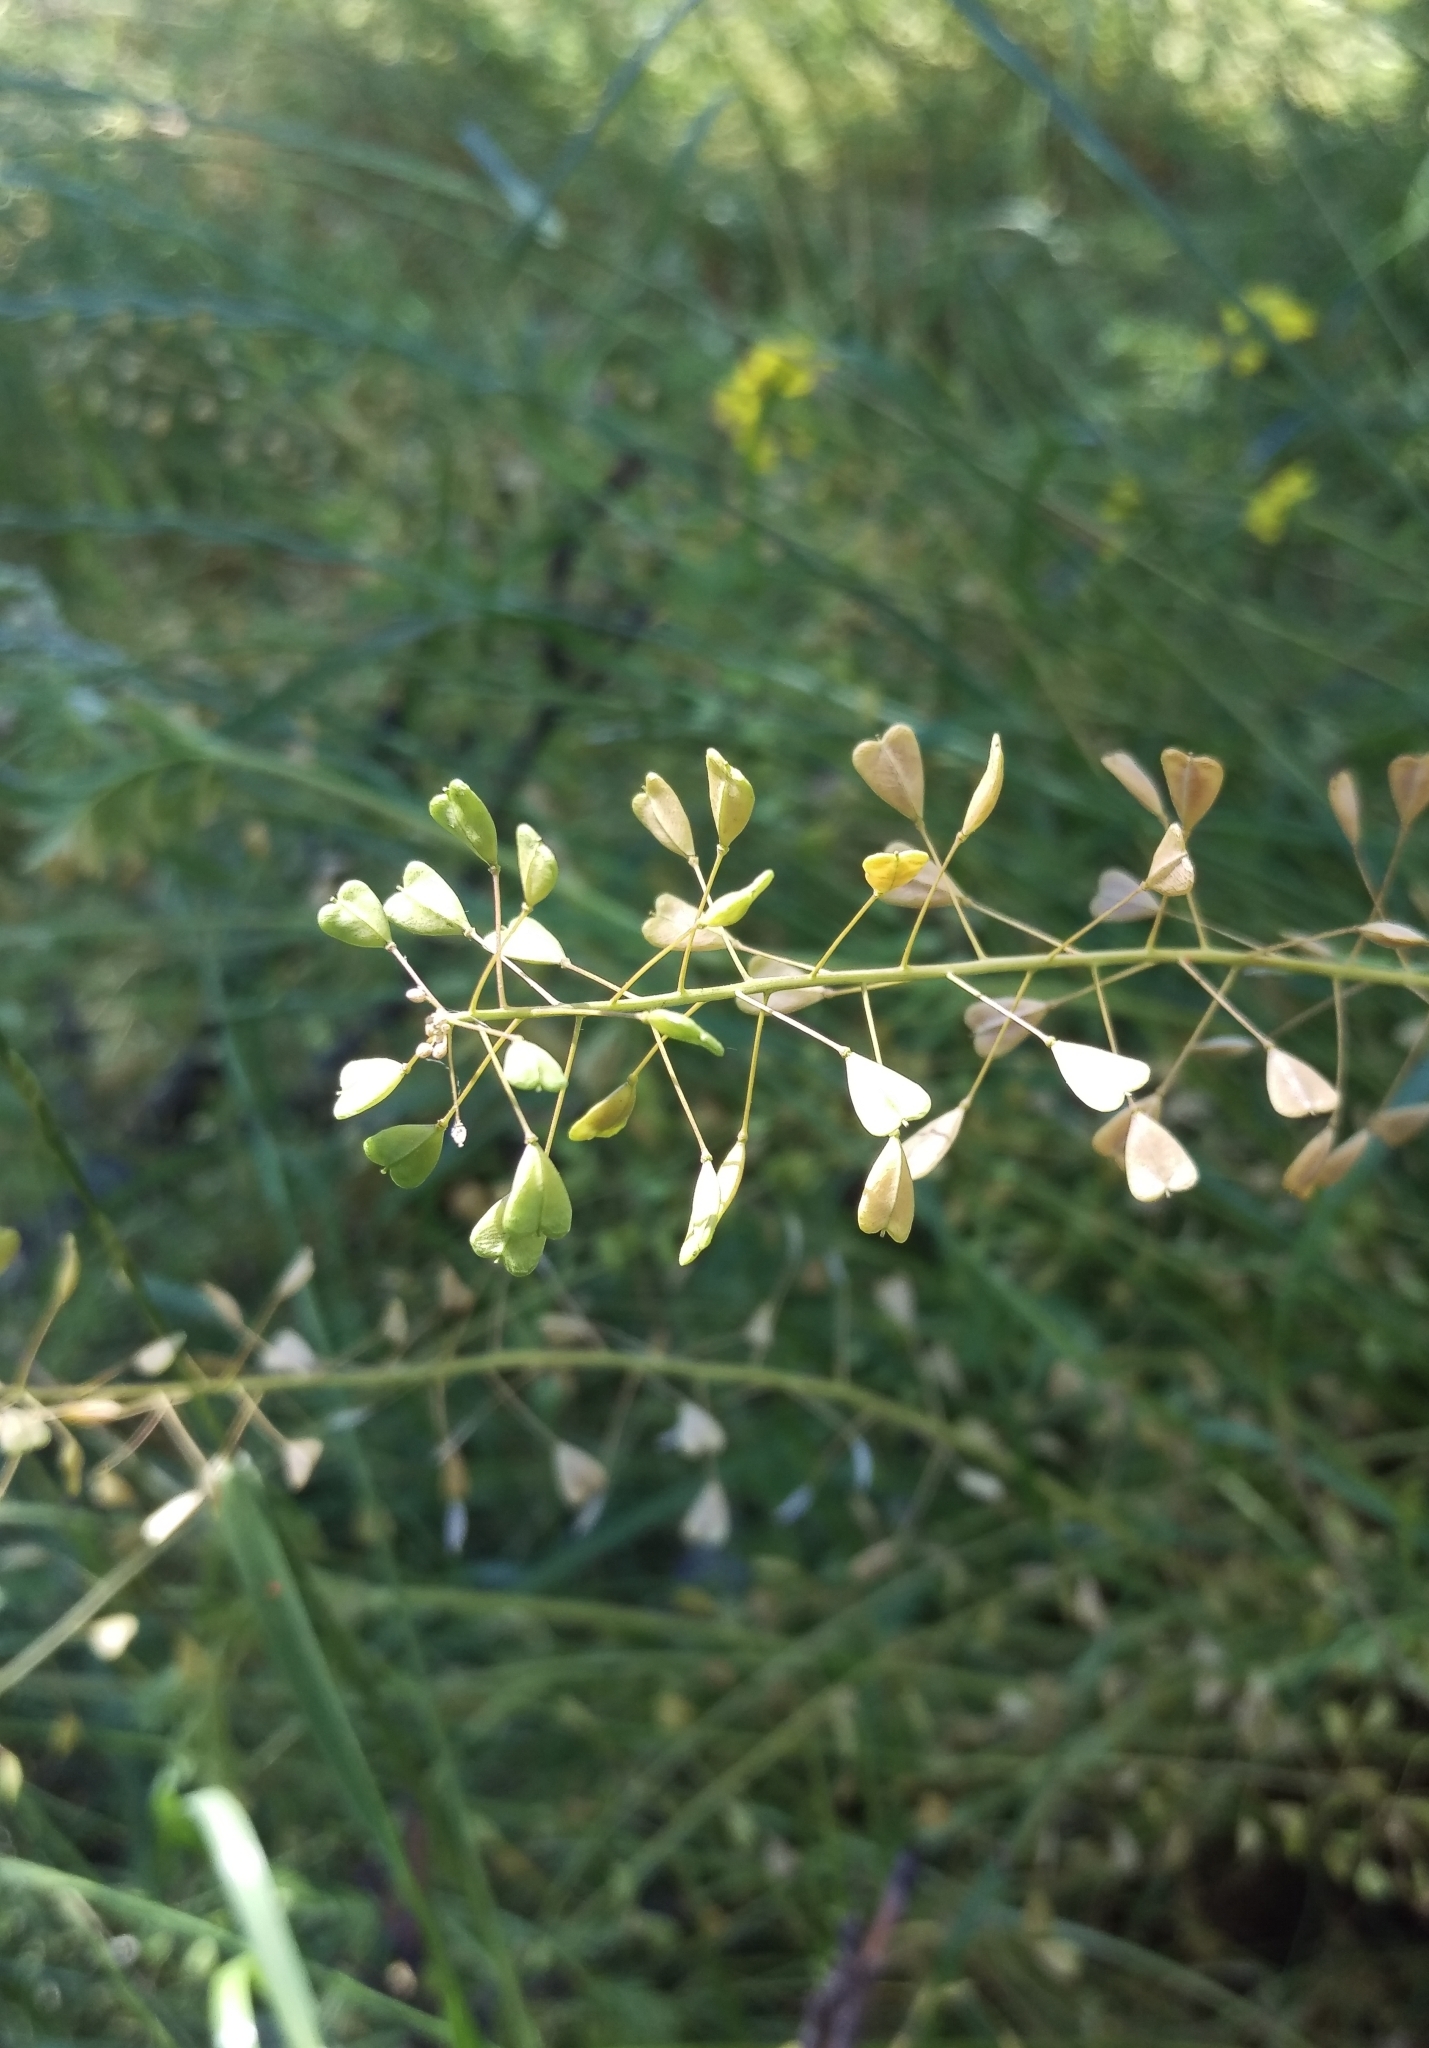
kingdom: Plantae
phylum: Tracheophyta
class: Magnoliopsida
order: Brassicales
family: Brassicaceae
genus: Capsella
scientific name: Capsella bursa-pastoris
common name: Shepherd's purse
